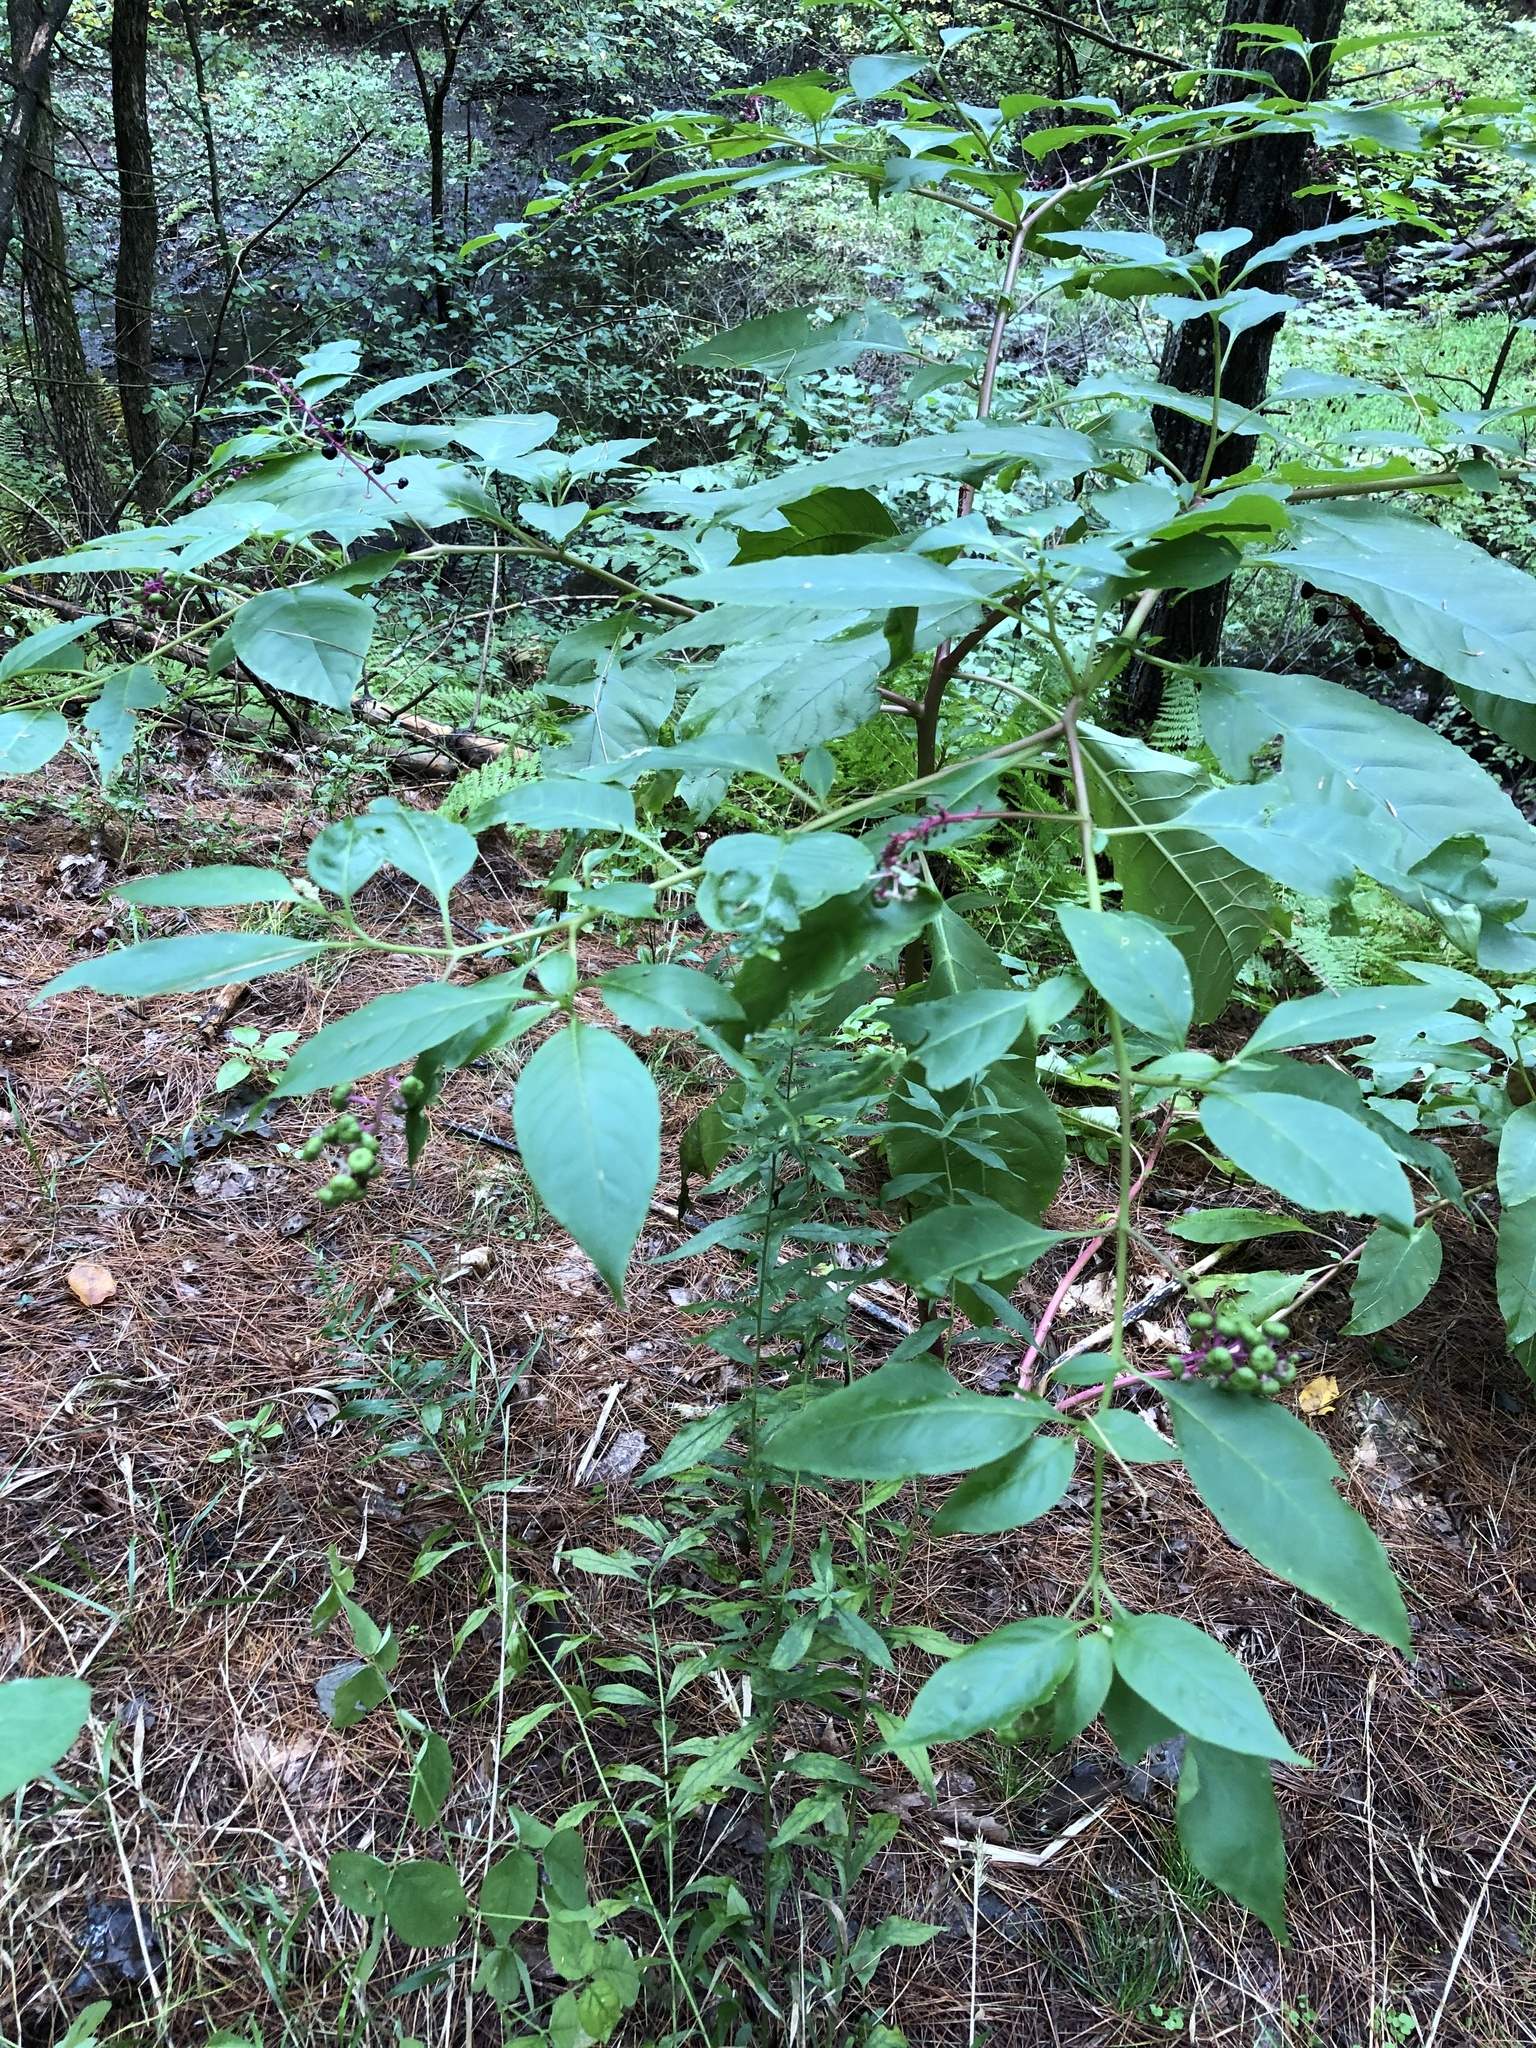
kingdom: Plantae
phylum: Tracheophyta
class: Magnoliopsida
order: Caryophyllales
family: Phytolaccaceae
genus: Phytolacca
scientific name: Phytolacca americana
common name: American pokeweed
